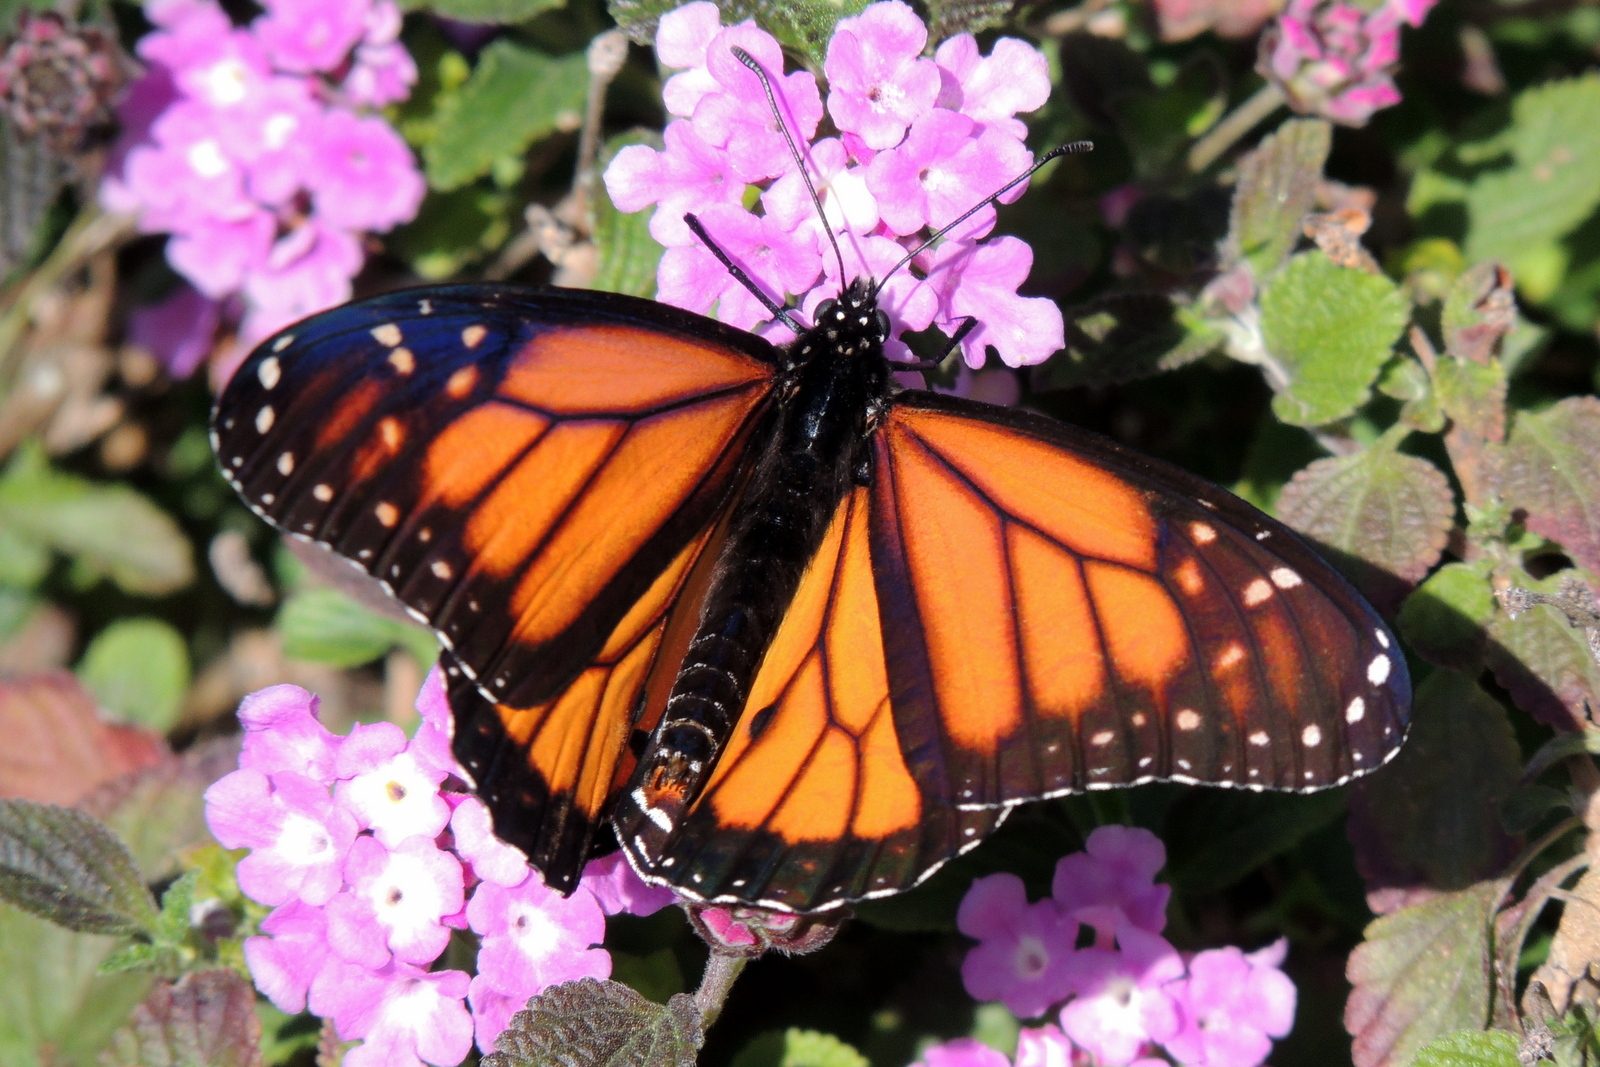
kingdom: Animalia
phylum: Arthropoda
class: Insecta
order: Lepidoptera
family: Nymphalidae
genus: Danaus
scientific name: Danaus plexippus
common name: Monarch
